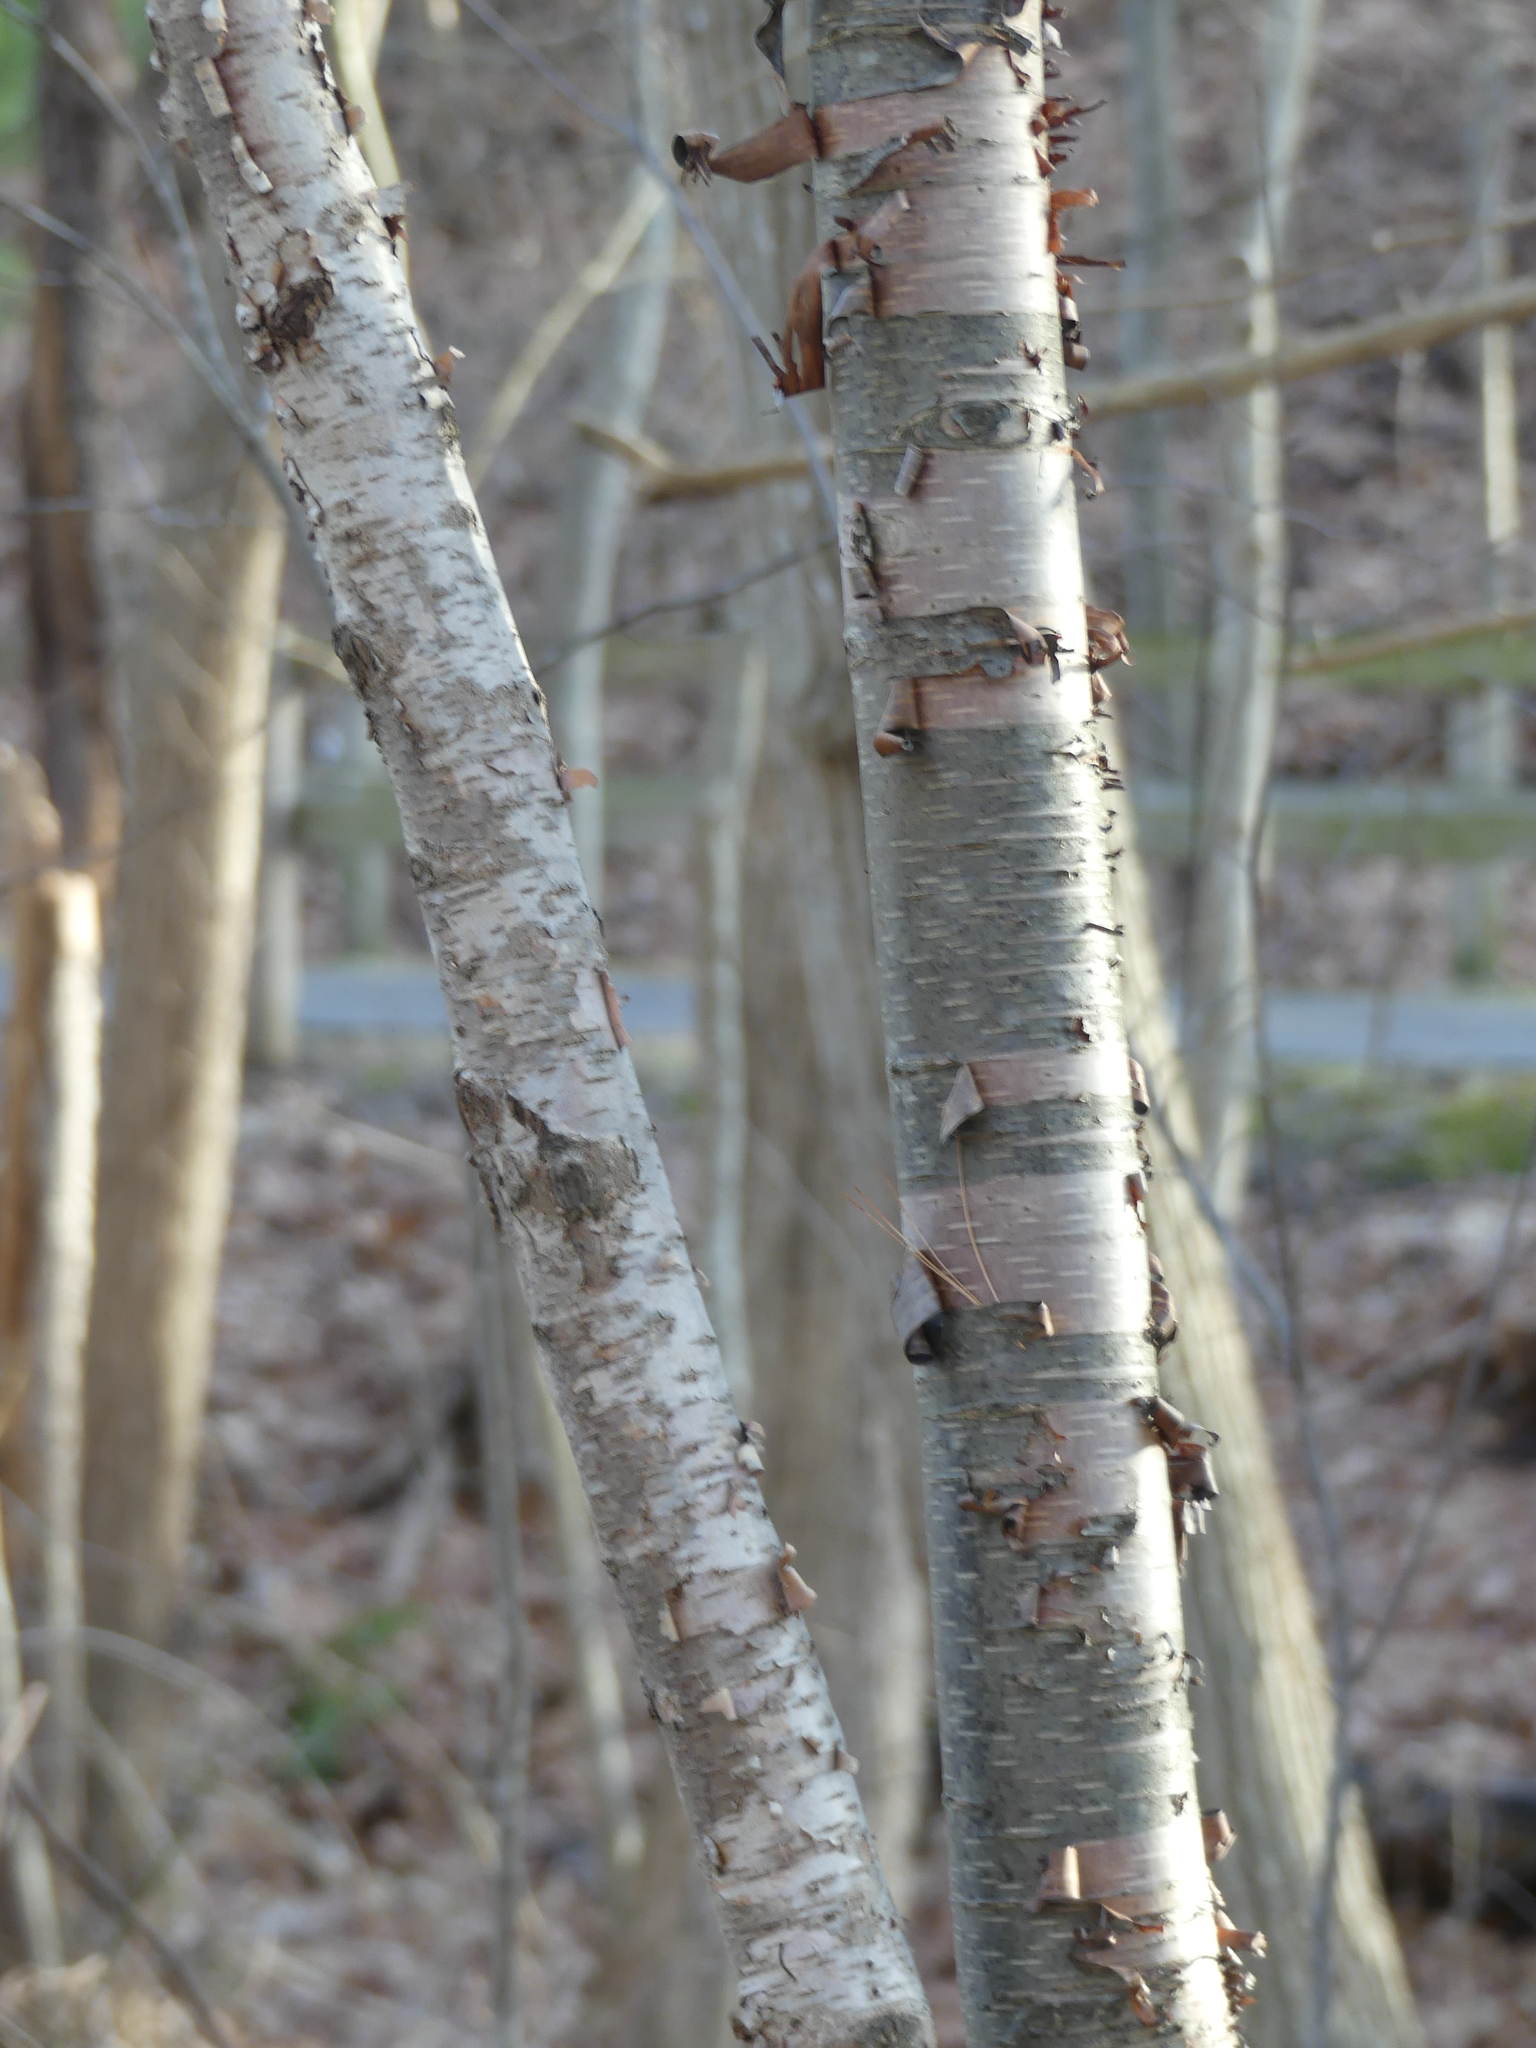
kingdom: Plantae
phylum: Tracheophyta
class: Magnoliopsida
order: Fagales
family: Betulaceae
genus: Betula
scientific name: Betula papyrifera
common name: Paper birch
